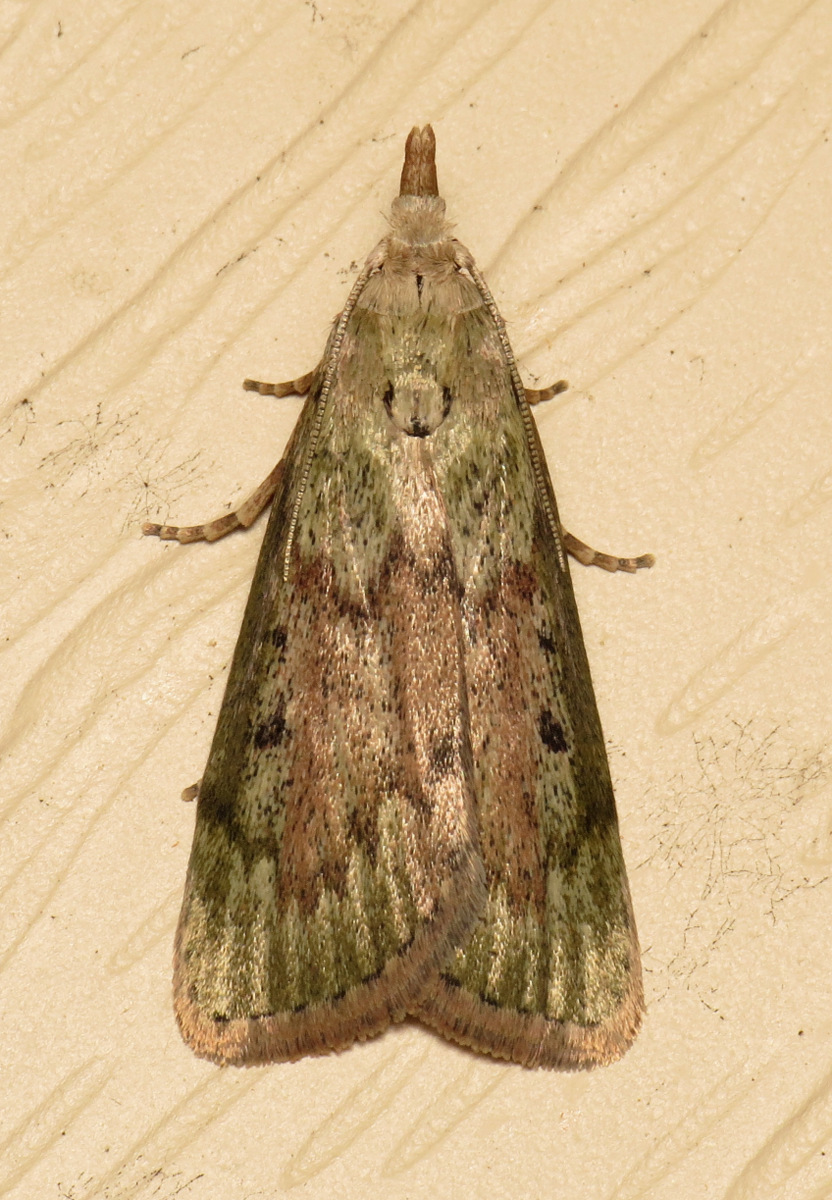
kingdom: Animalia
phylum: Arthropoda
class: Insecta
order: Lepidoptera
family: Pyralidae
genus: Aphomia
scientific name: Aphomia sociella
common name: Bee moth
